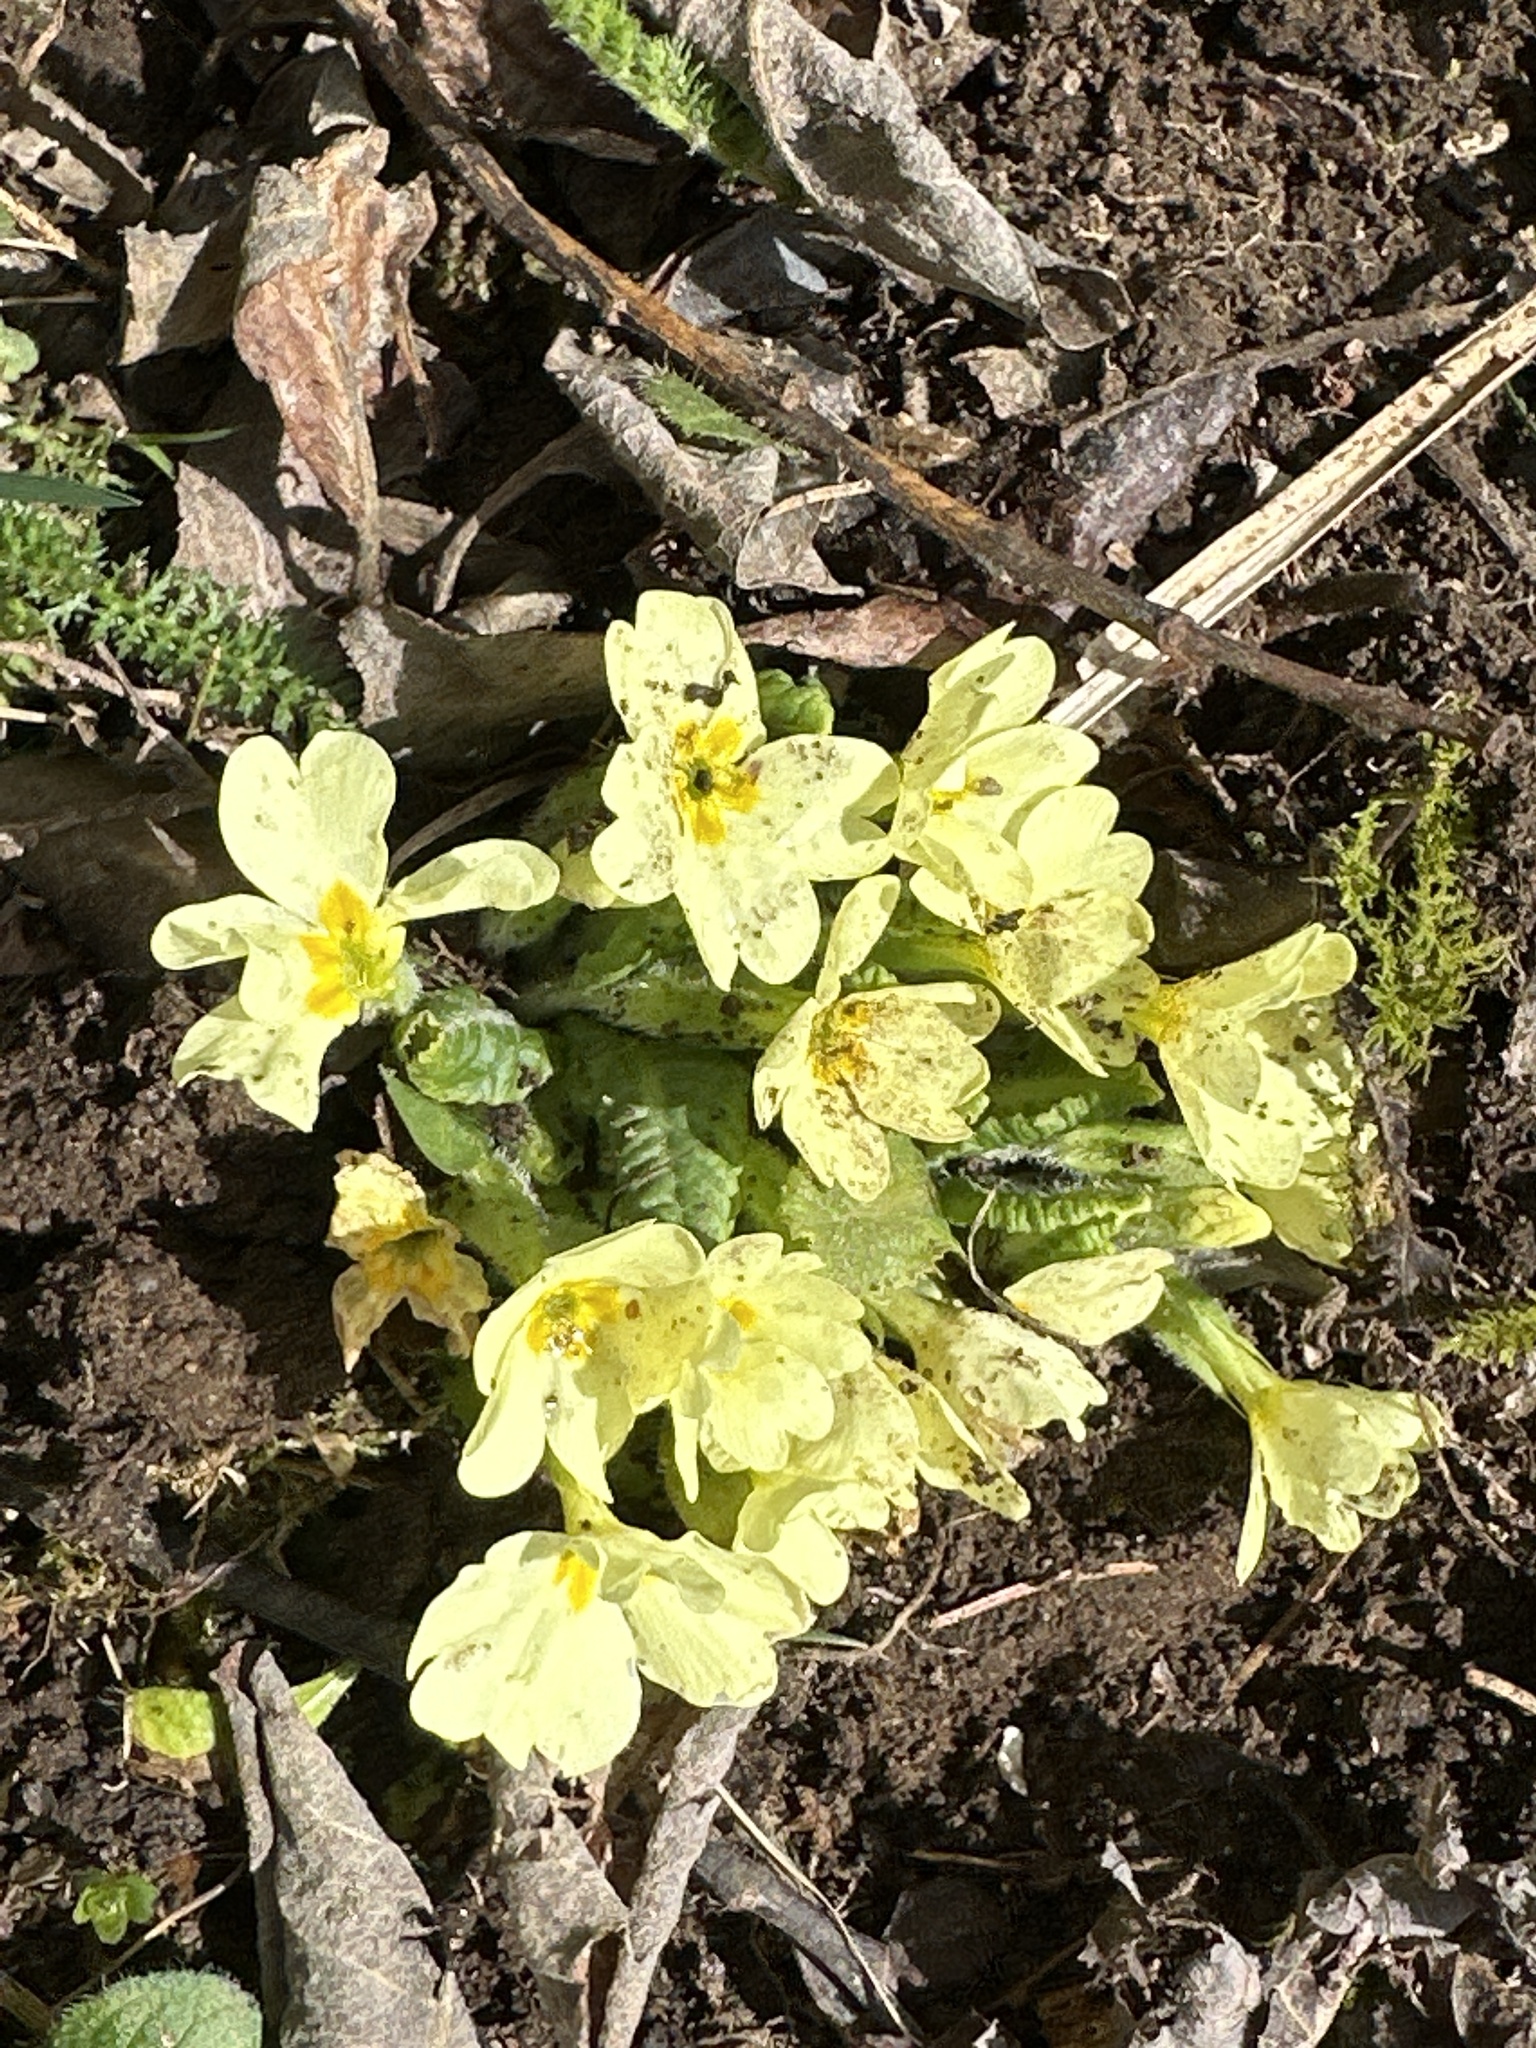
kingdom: Plantae
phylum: Tracheophyta
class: Magnoliopsida
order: Ericales
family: Primulaceae
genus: Primula
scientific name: Primula vulgaris
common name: Primrose
